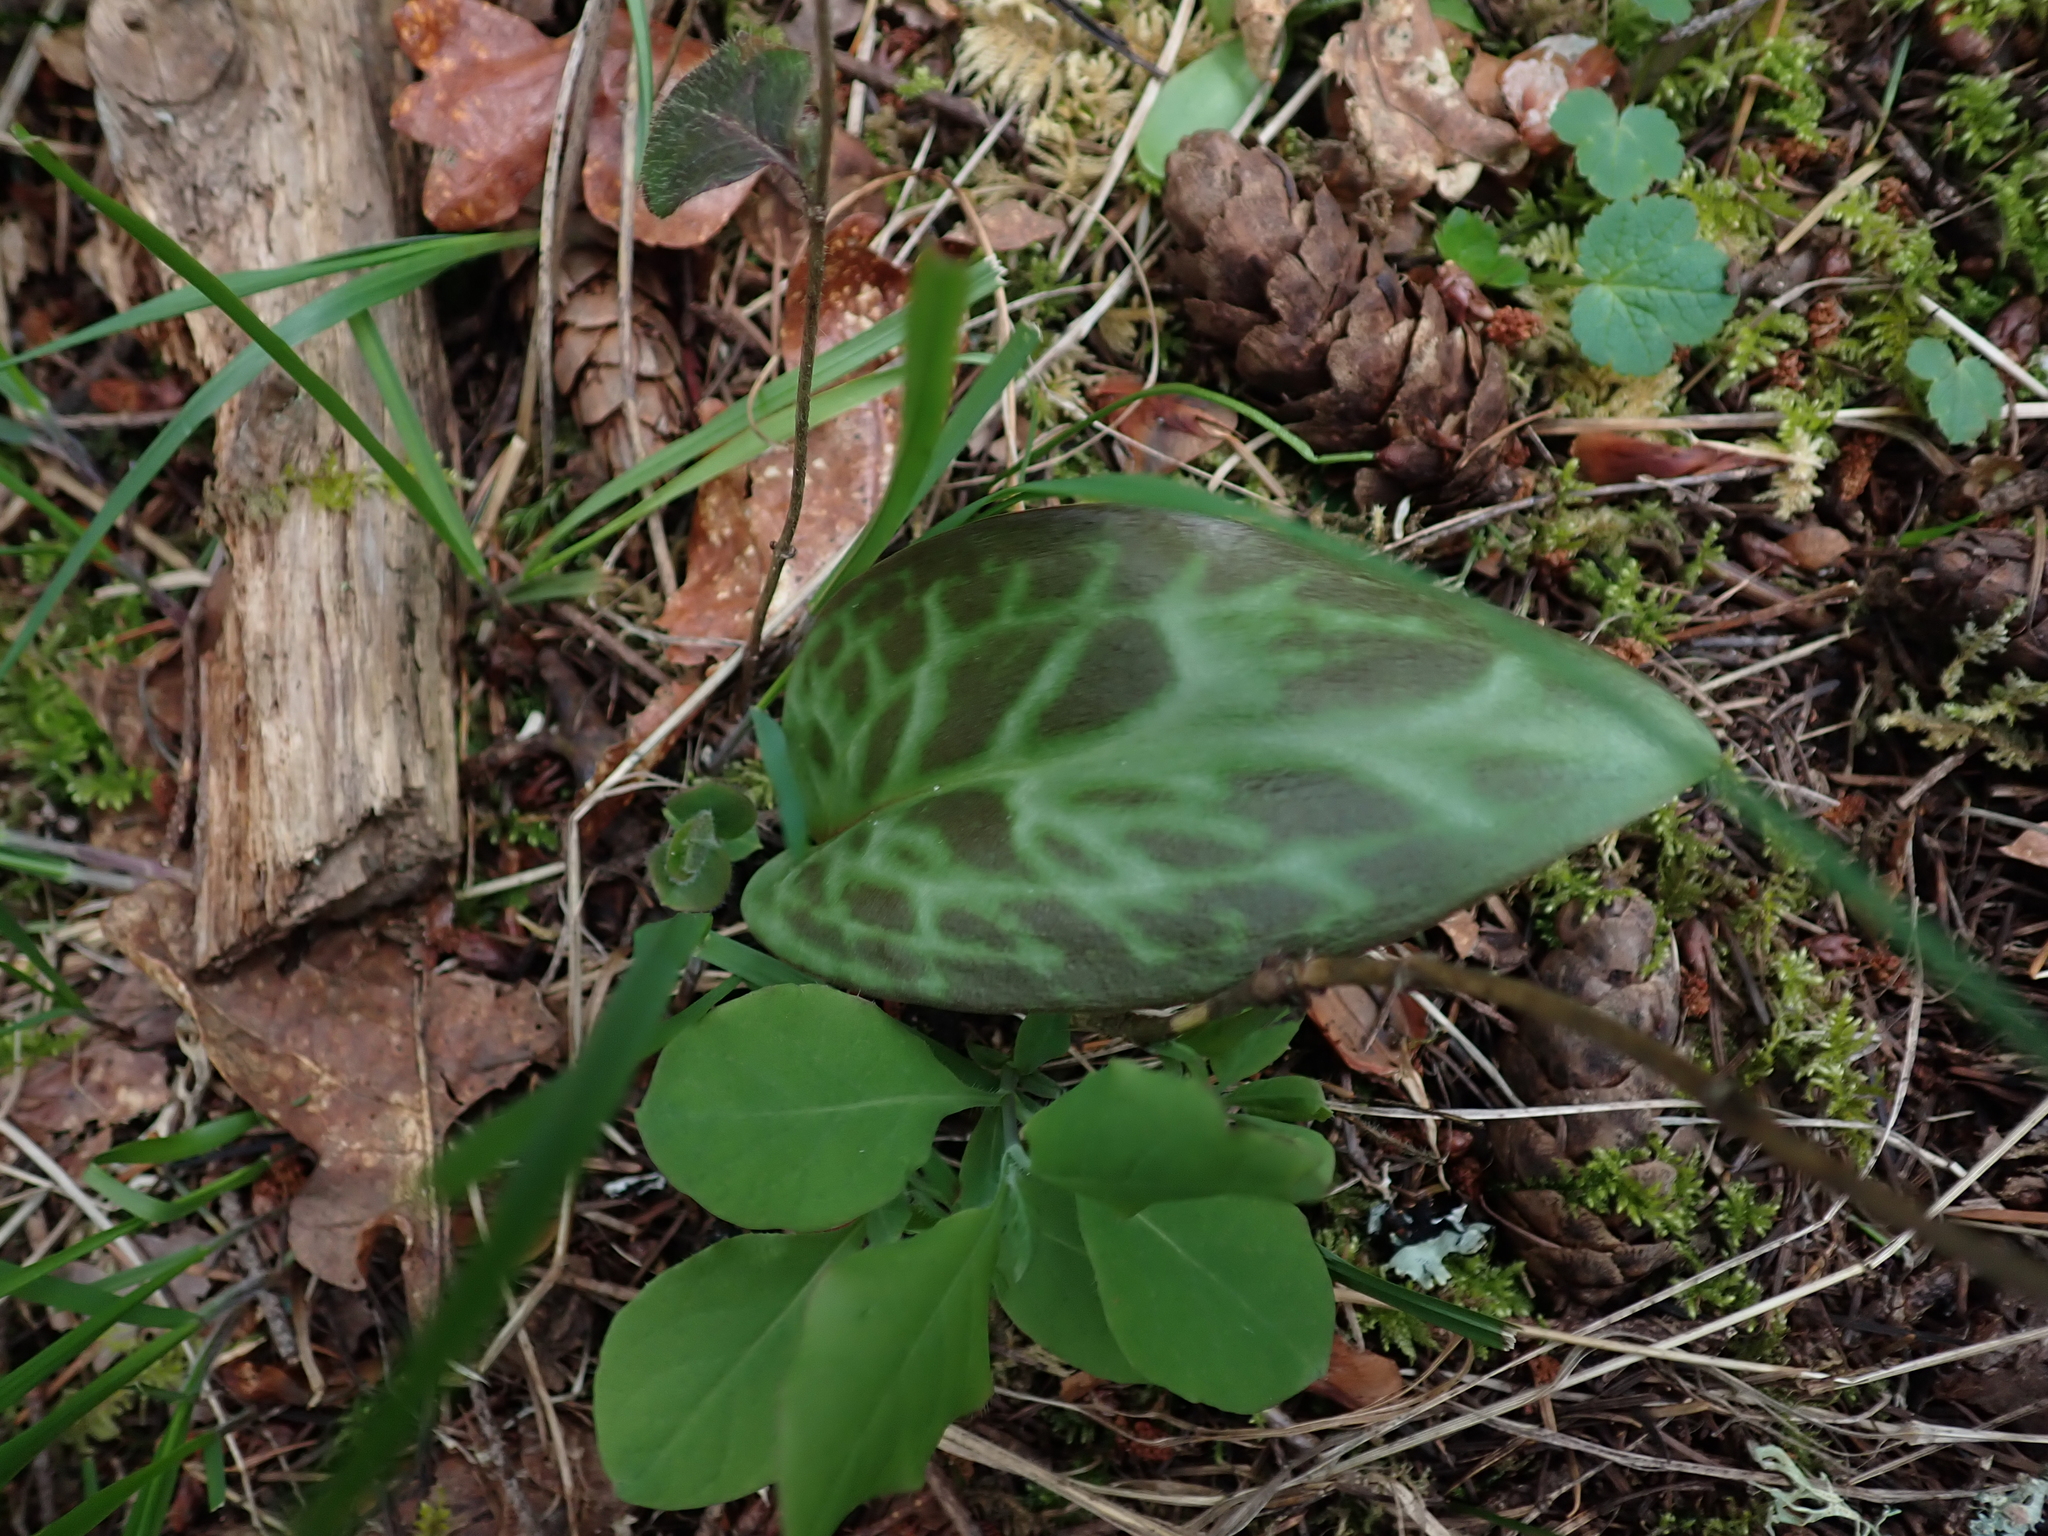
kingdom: Plantae
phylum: Tracheophyta
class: Liliopsida
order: Liliales
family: Liliaceae
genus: Erythronium
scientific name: Erythronium oregonum
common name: Giant adder's-tongue
